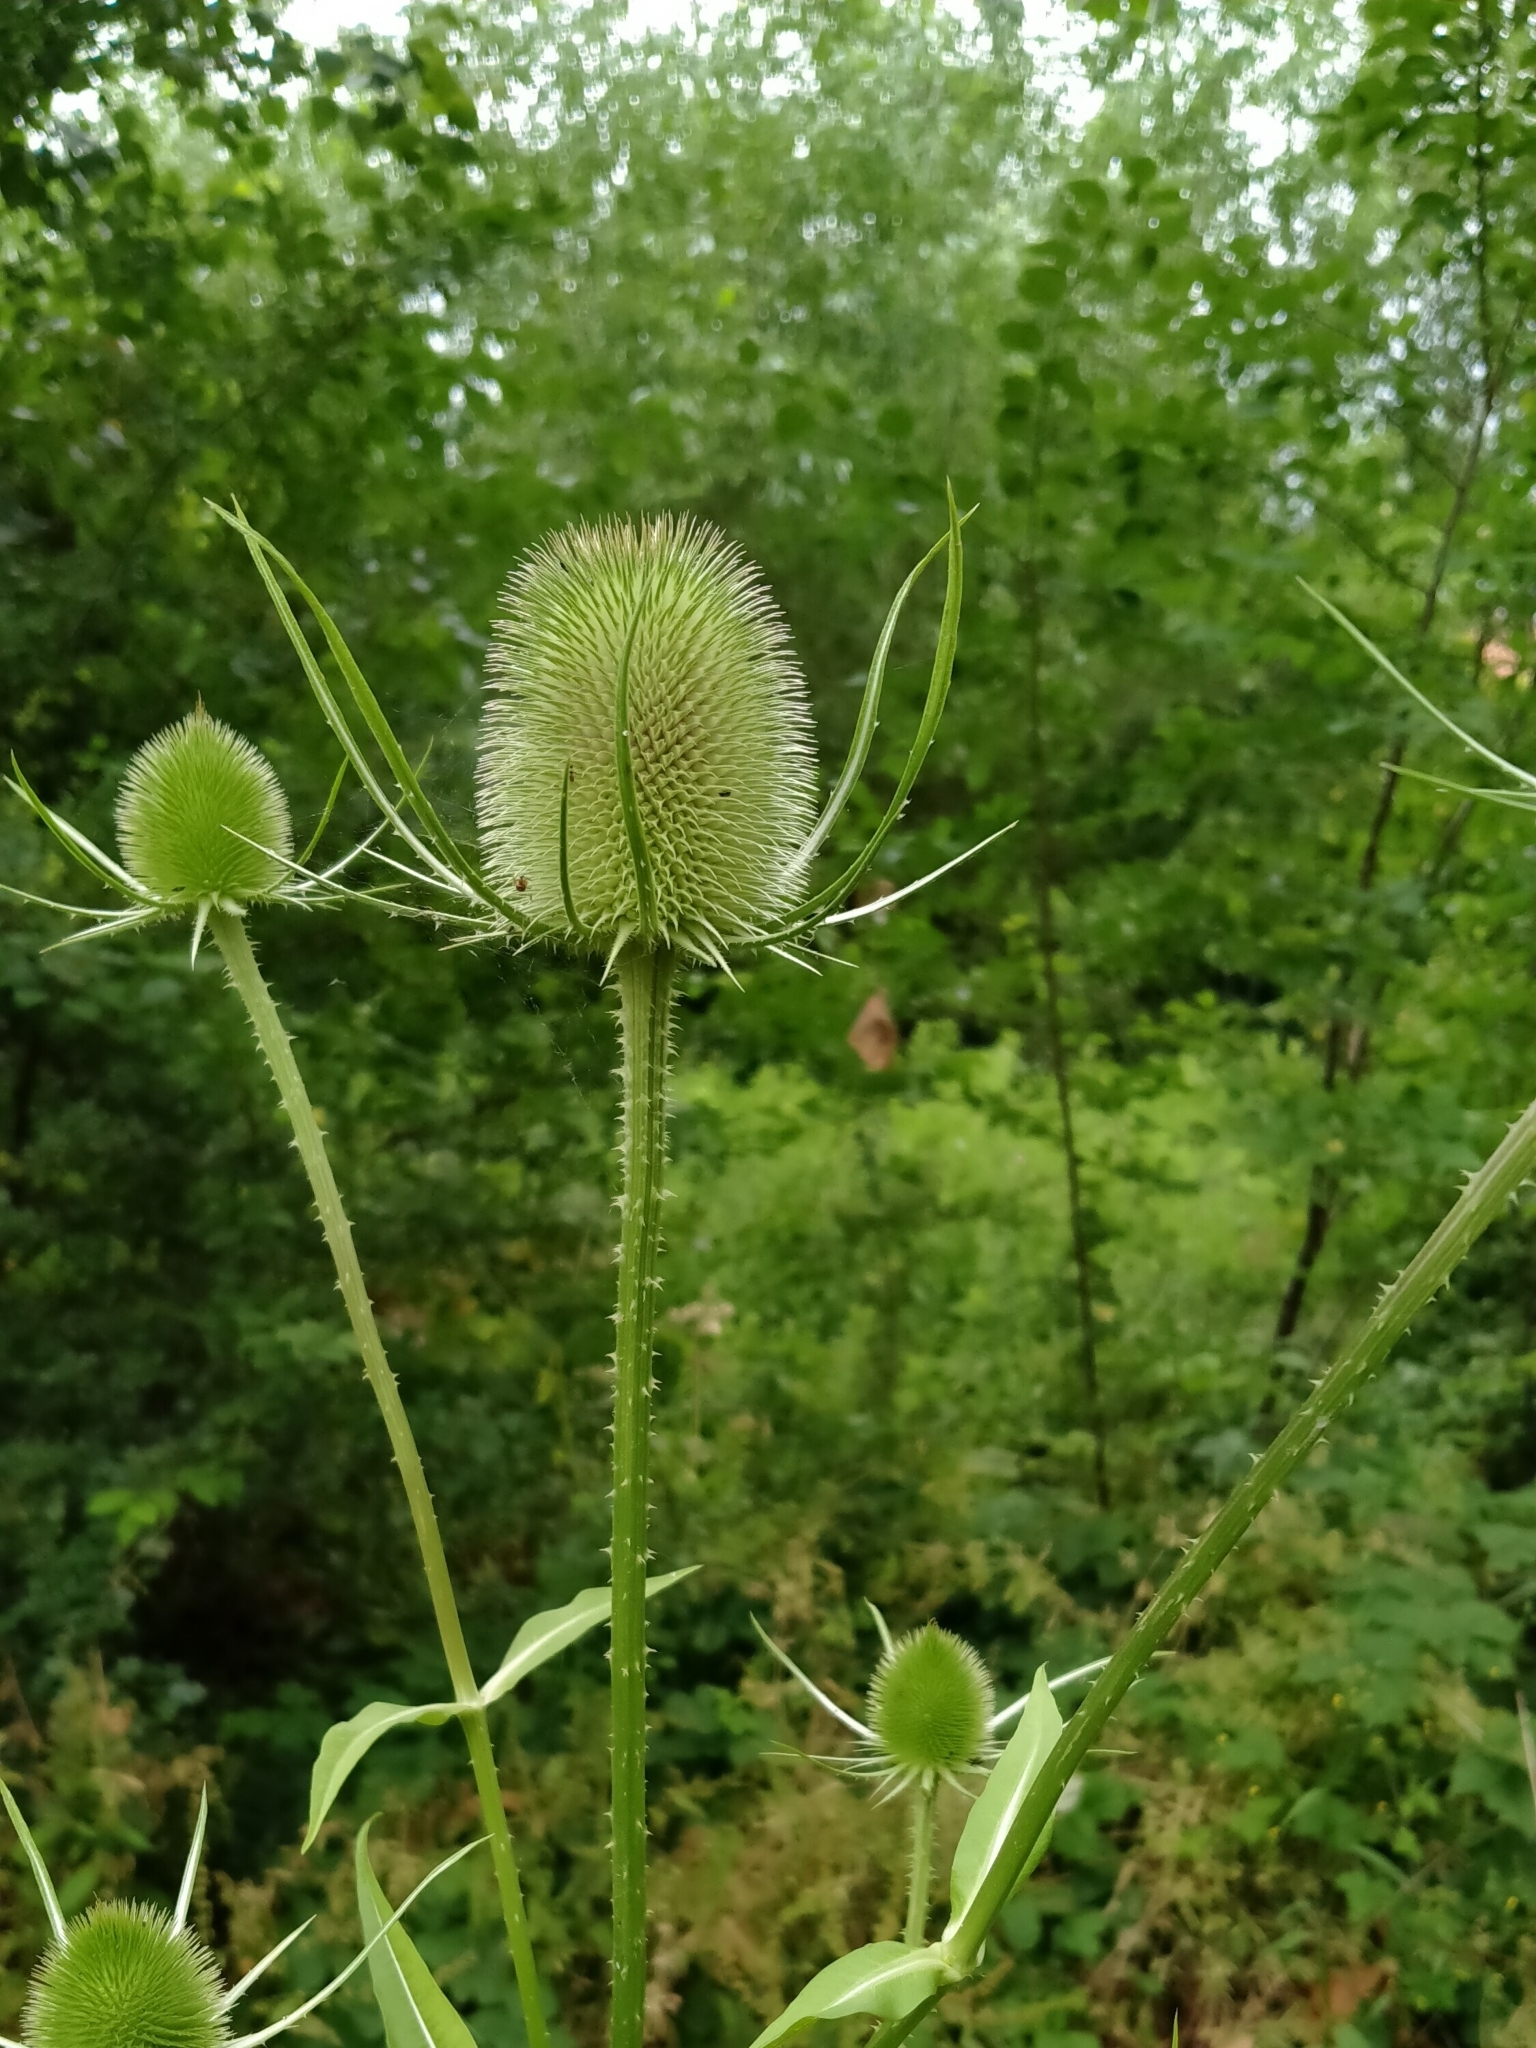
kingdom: Plantae
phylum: Tracheophyta
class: Magnoliopsida
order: Dipsacales
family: Caprifoliaceae
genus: Dipsacus
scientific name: Dipsacus fullonum
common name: Teasel
